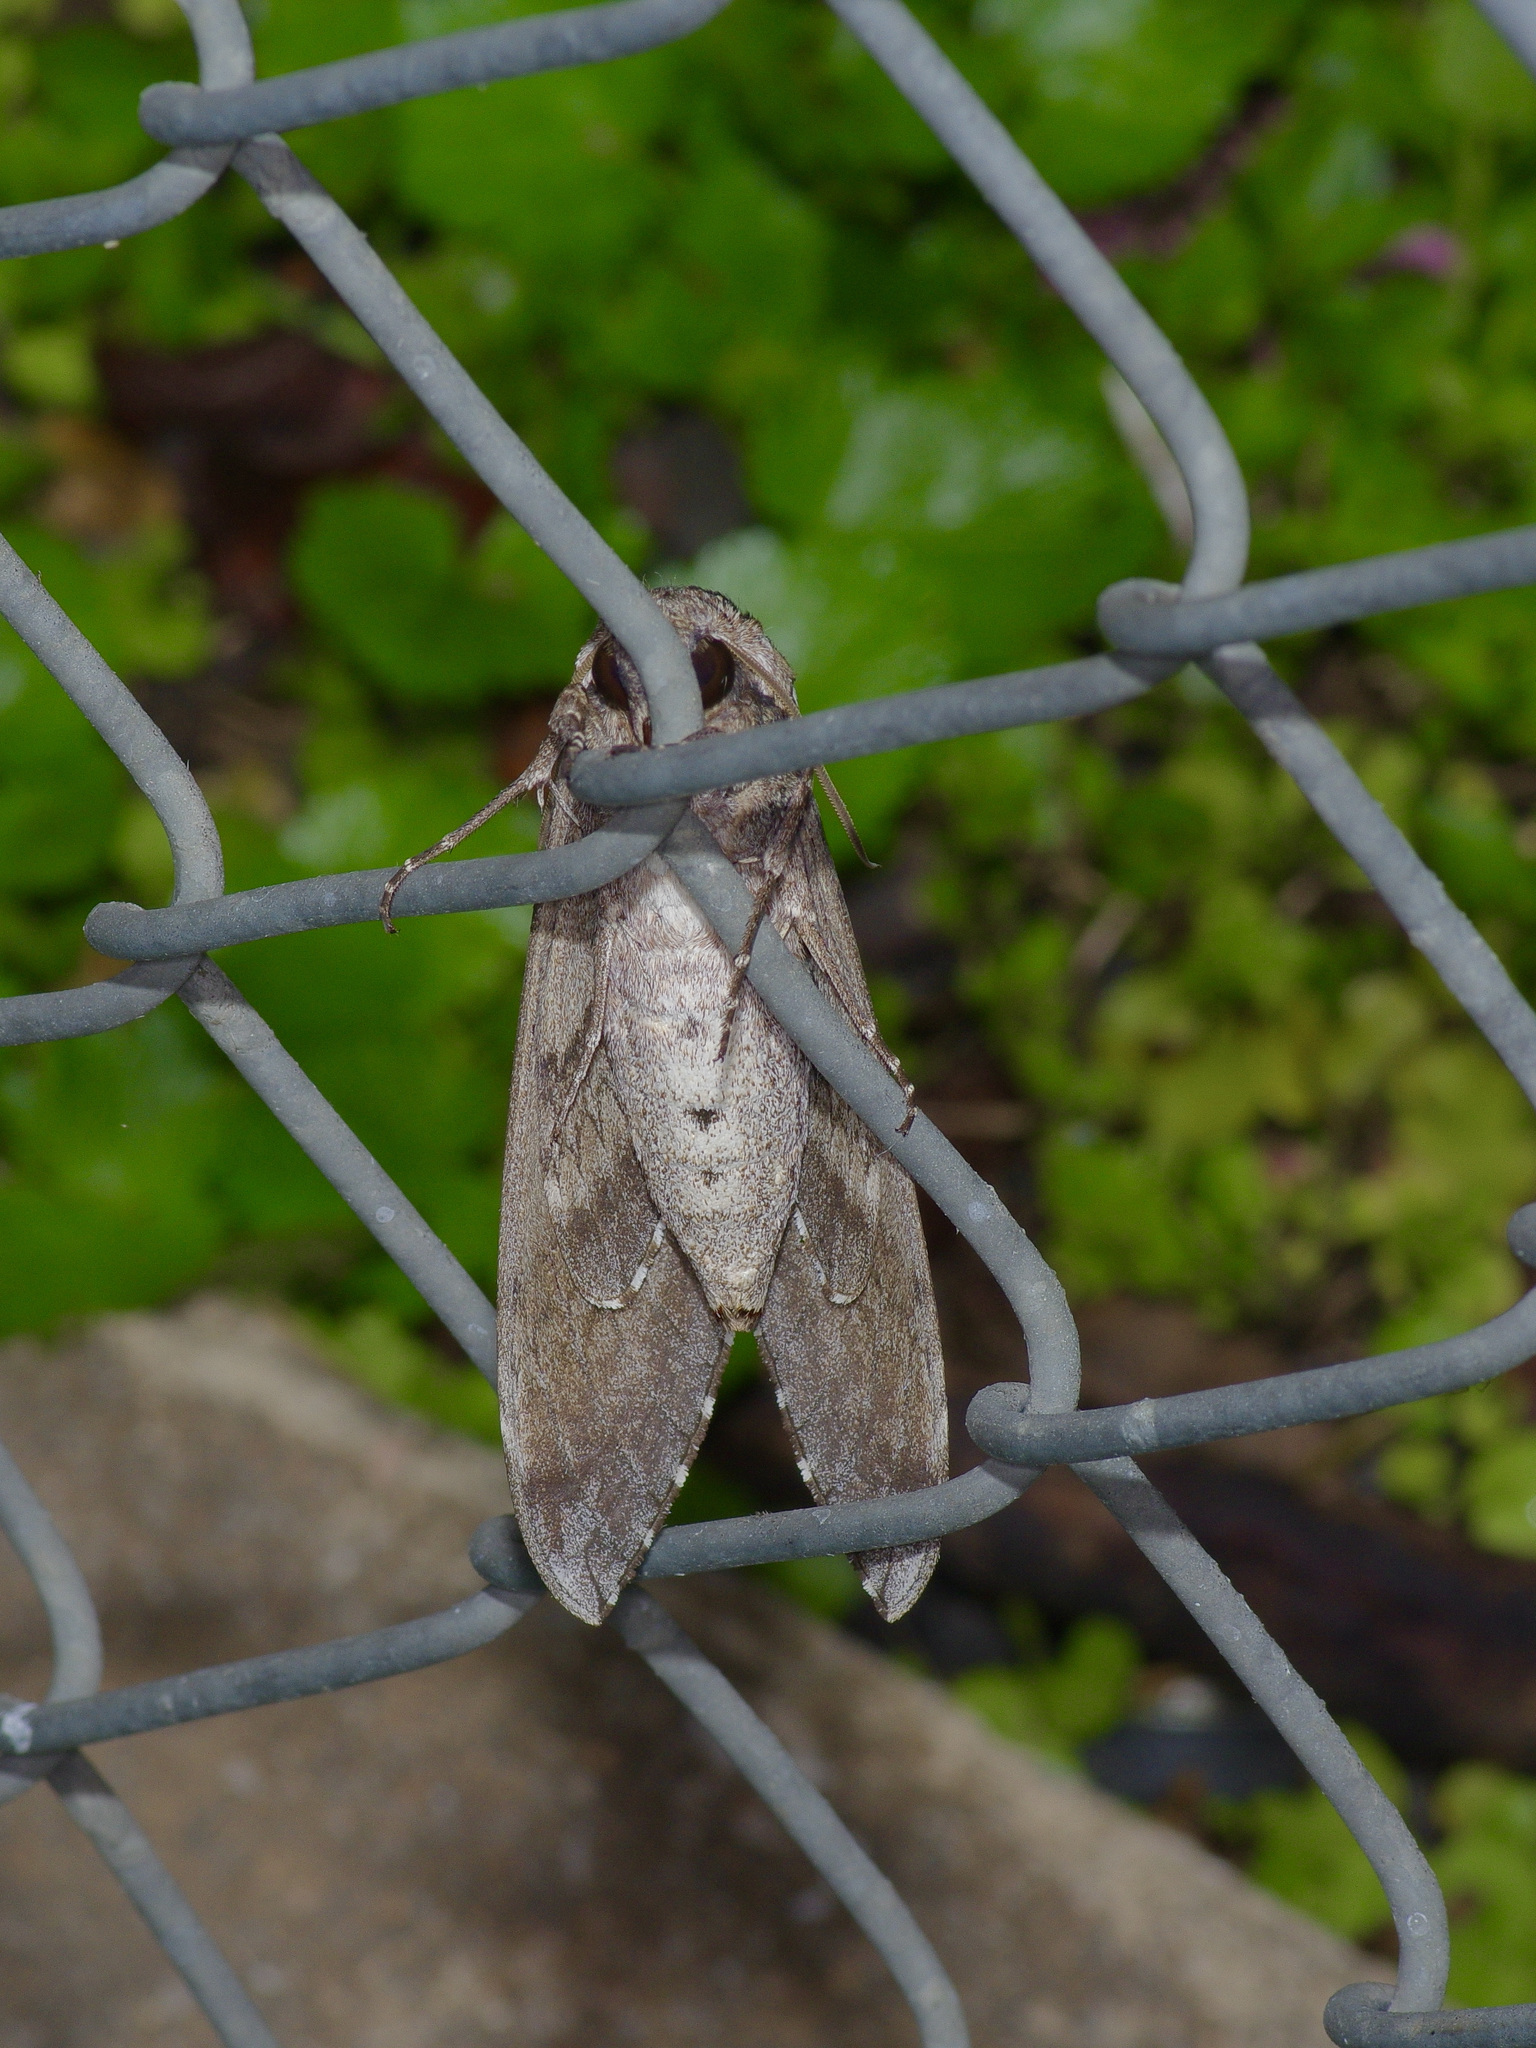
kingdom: Animalia
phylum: Arthropoda
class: Insecta
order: Lepidoptera
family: Sphingidae
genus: Manduca
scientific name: Manduca sexta
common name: Carolina sphinx
